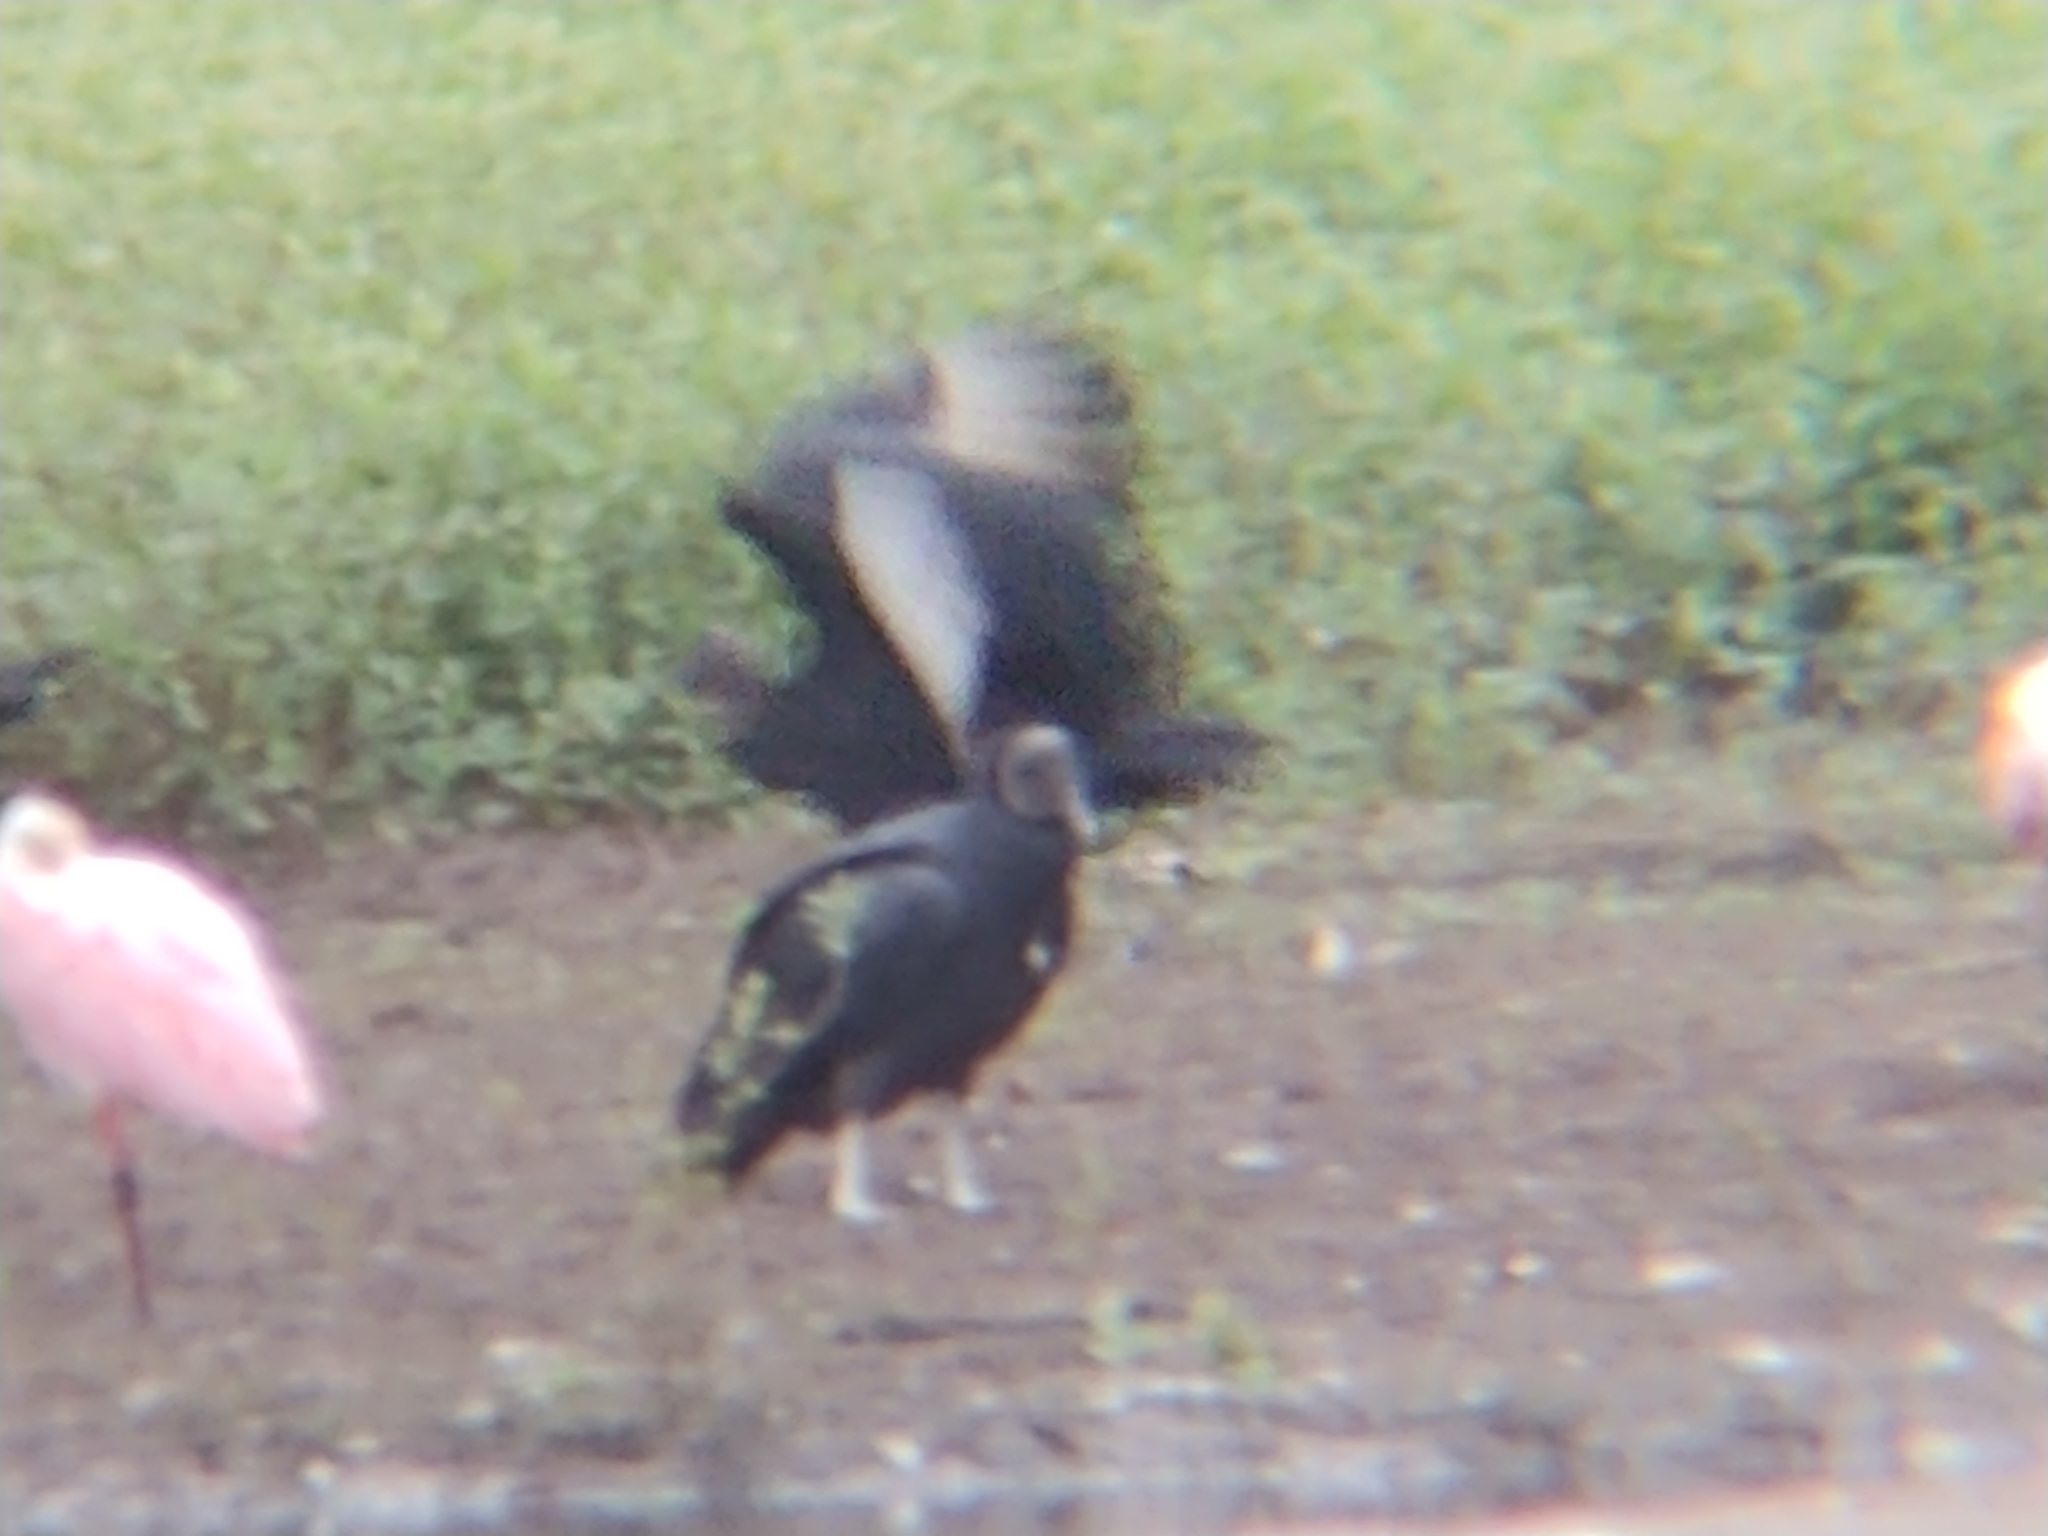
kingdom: Animalia
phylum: Chordata
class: Aves
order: Accipitriformes
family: Cathartidae
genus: Coragyps
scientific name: Coragyps atratus
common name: Black vulture
